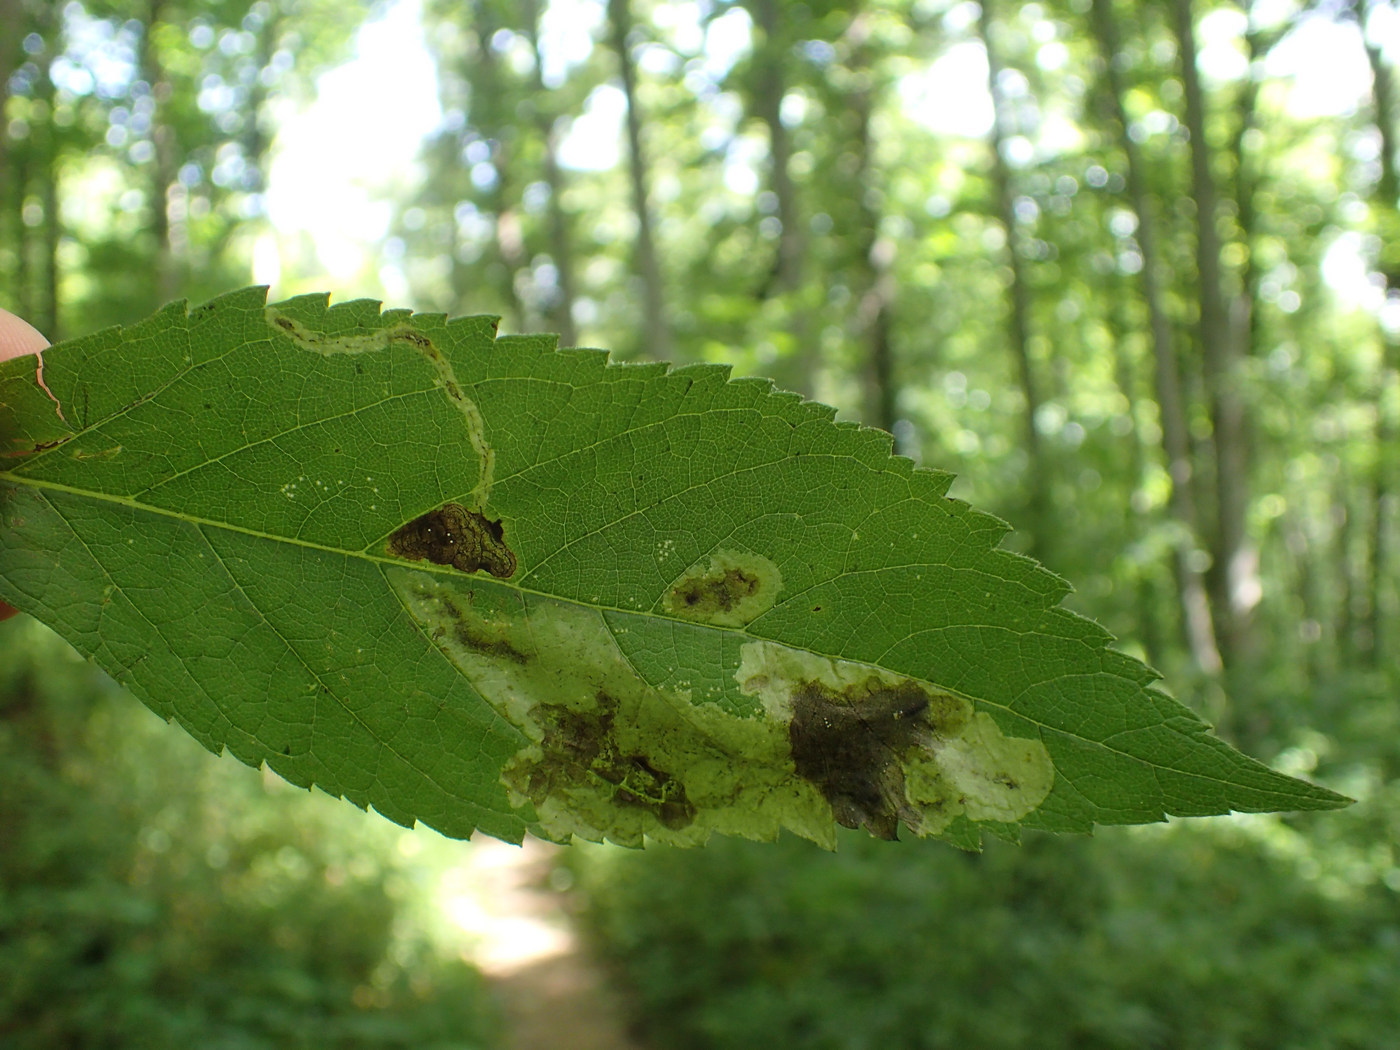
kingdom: Animalia
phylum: Arthropoda
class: Insecta
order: Diptera
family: Agromyzidae
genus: Calycomyza
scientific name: Calycomyza flavinotum
